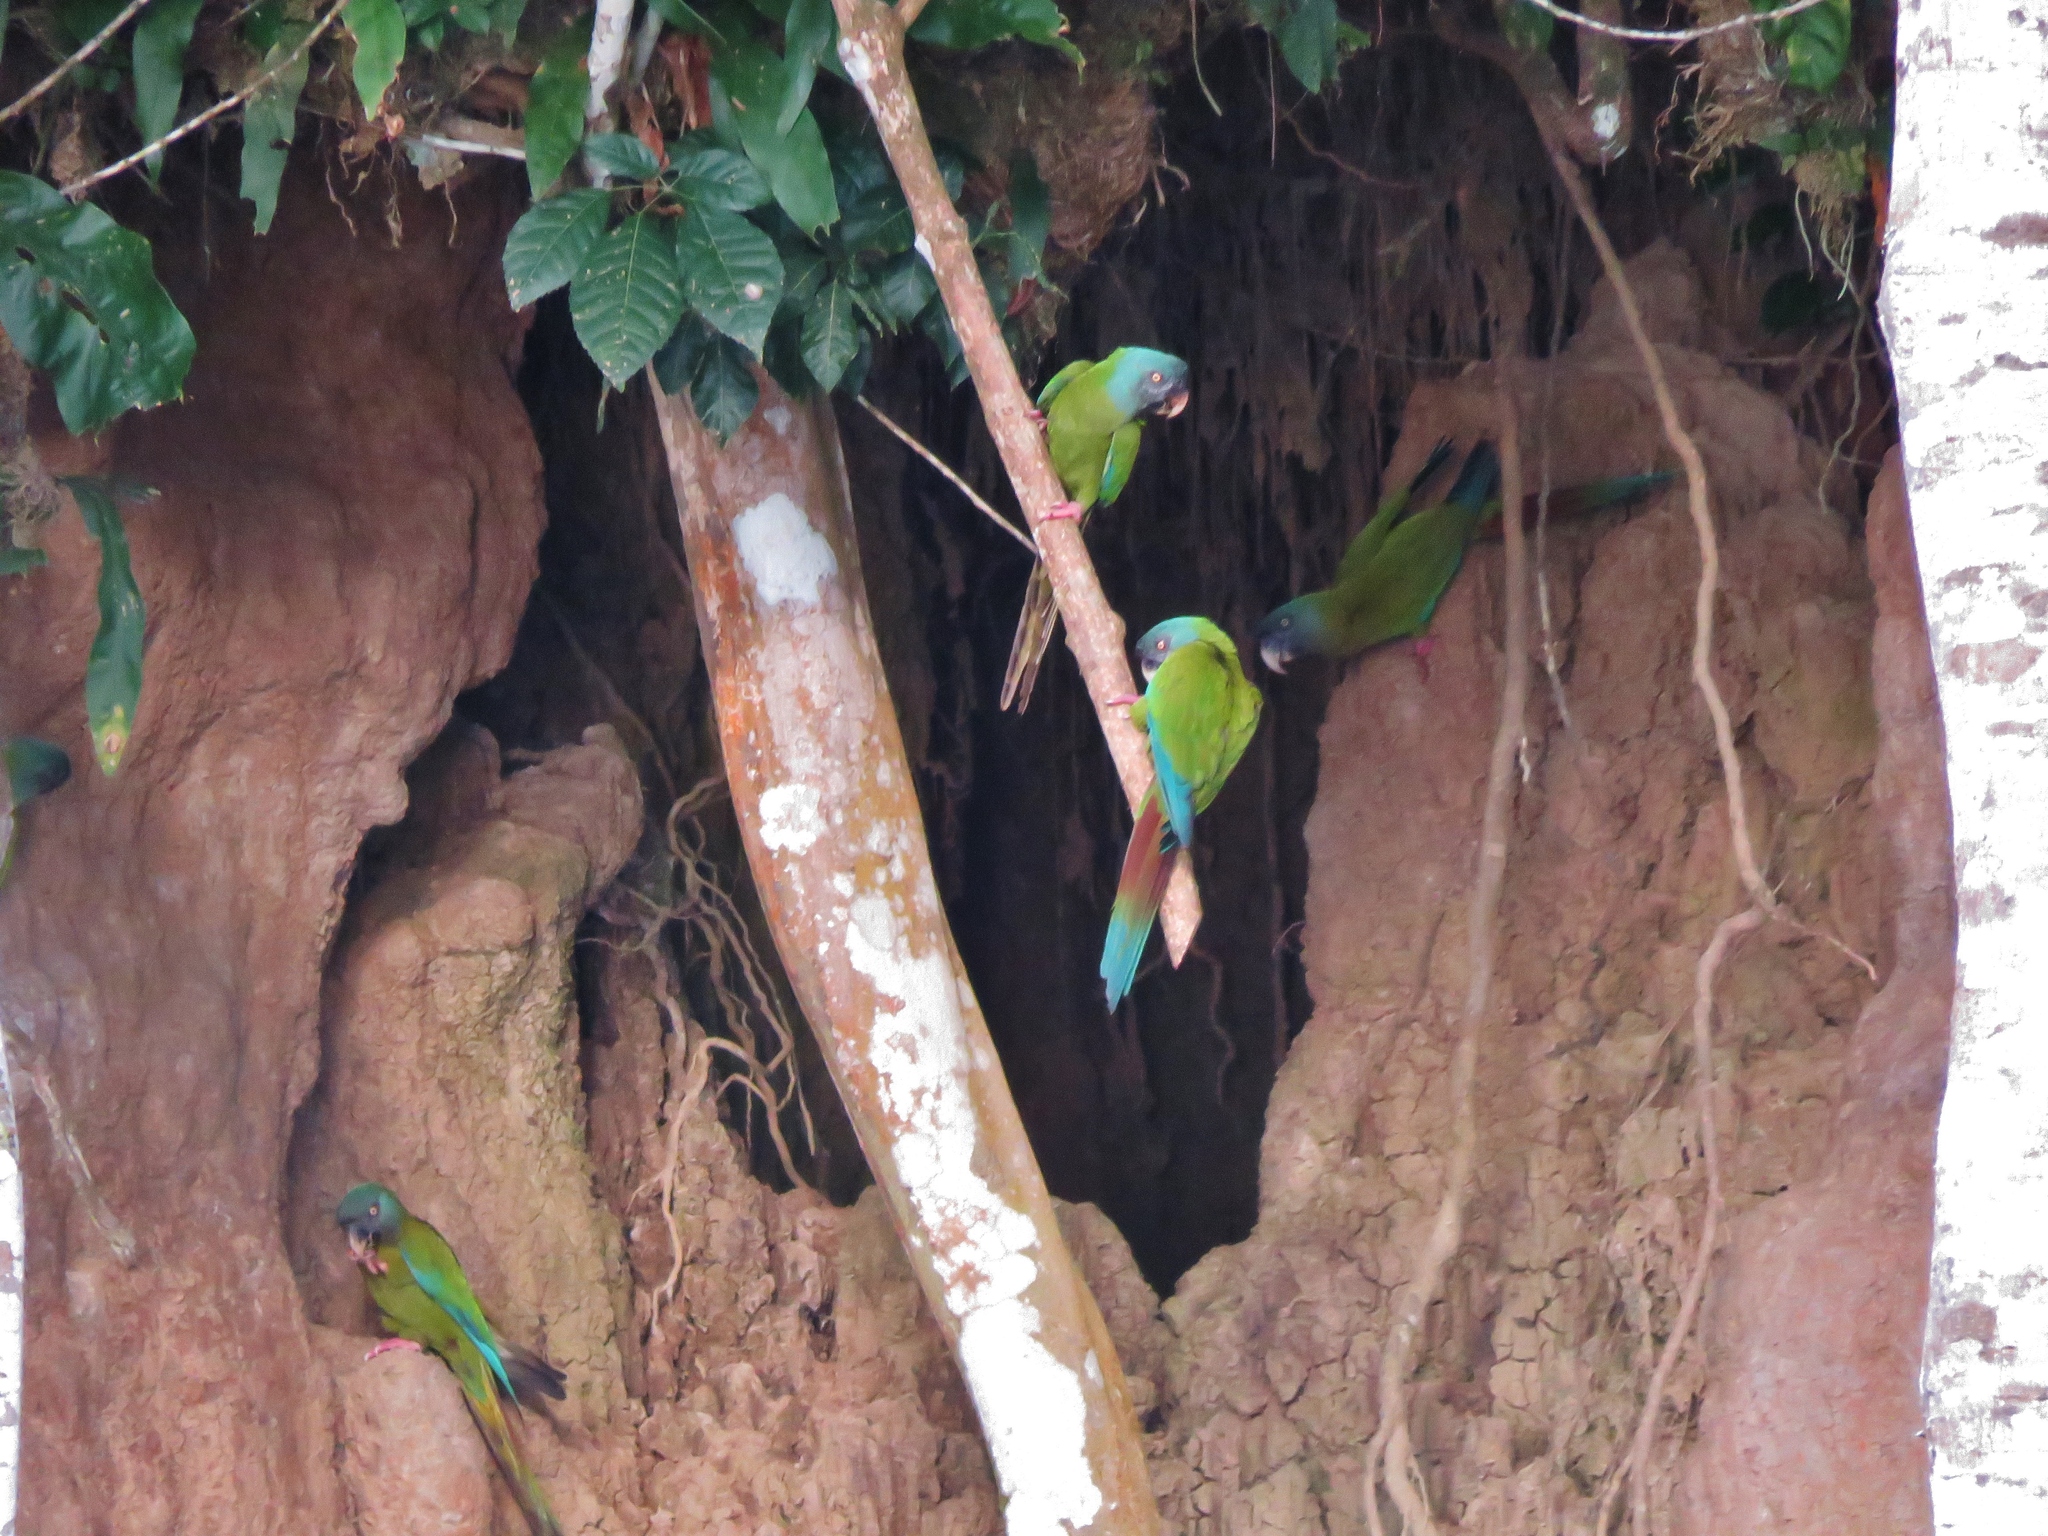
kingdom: Animalia
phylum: Chordata
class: Aves
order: Psittaciformes
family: Psittacidae
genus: Primolius
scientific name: Primolius couloni
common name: Blue-headed macaw
